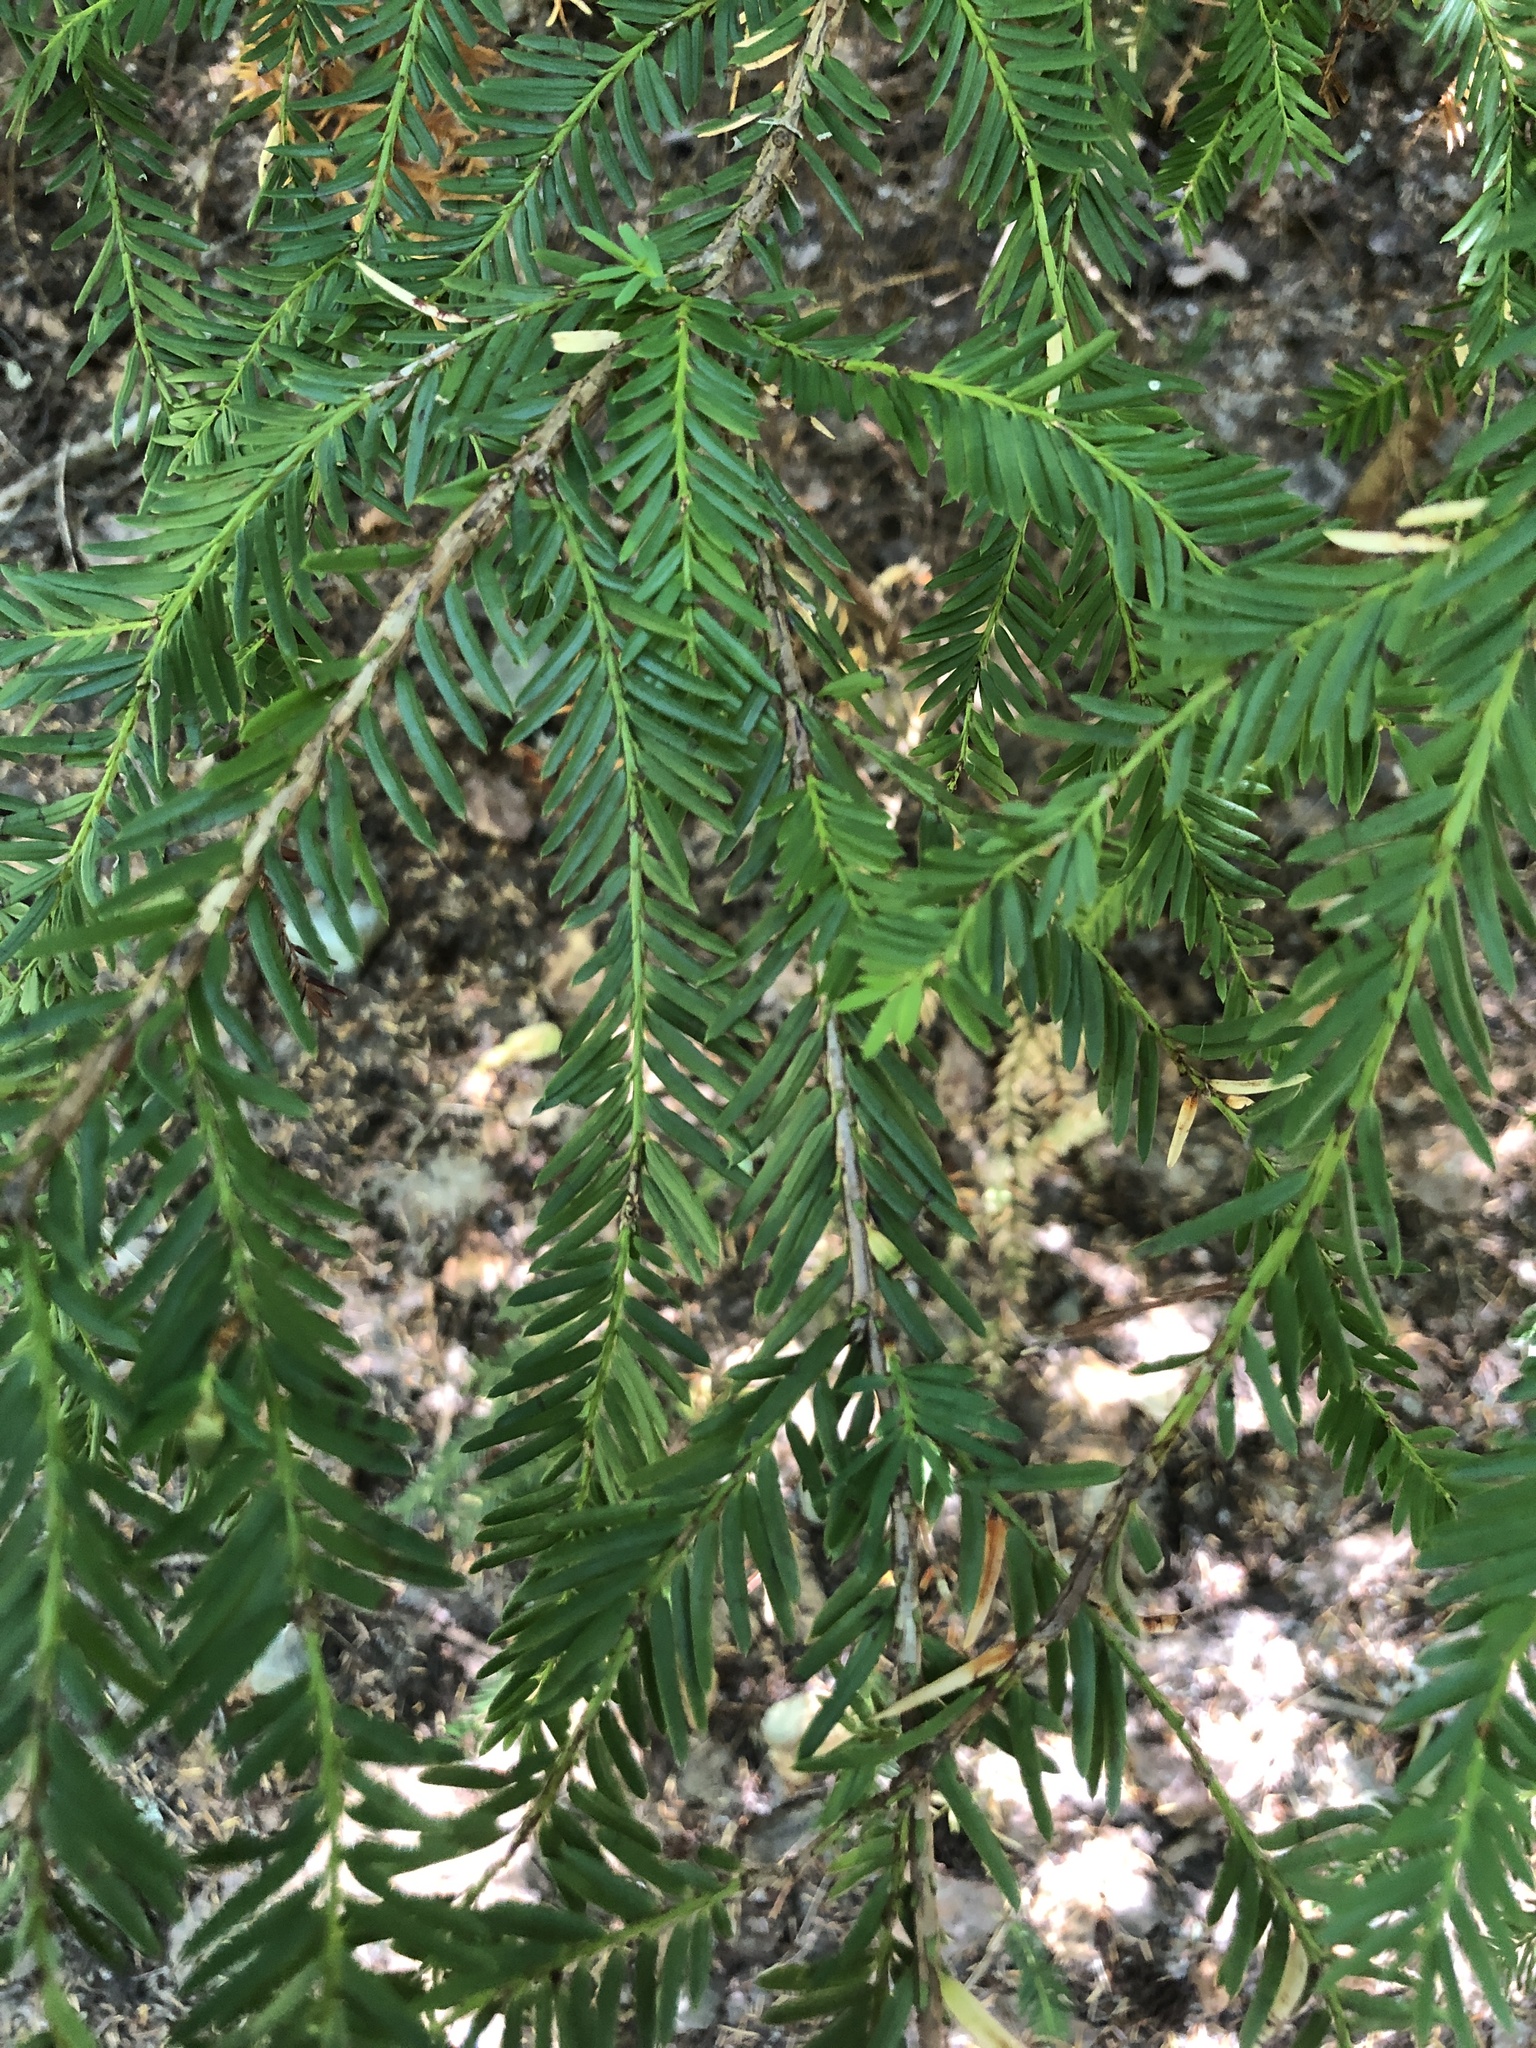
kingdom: Plantae
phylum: Tracheophyta
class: Pinopsida
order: Pinales
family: Taxaceae
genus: Taxus
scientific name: Taxus brevifolia
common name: Pacific yew
